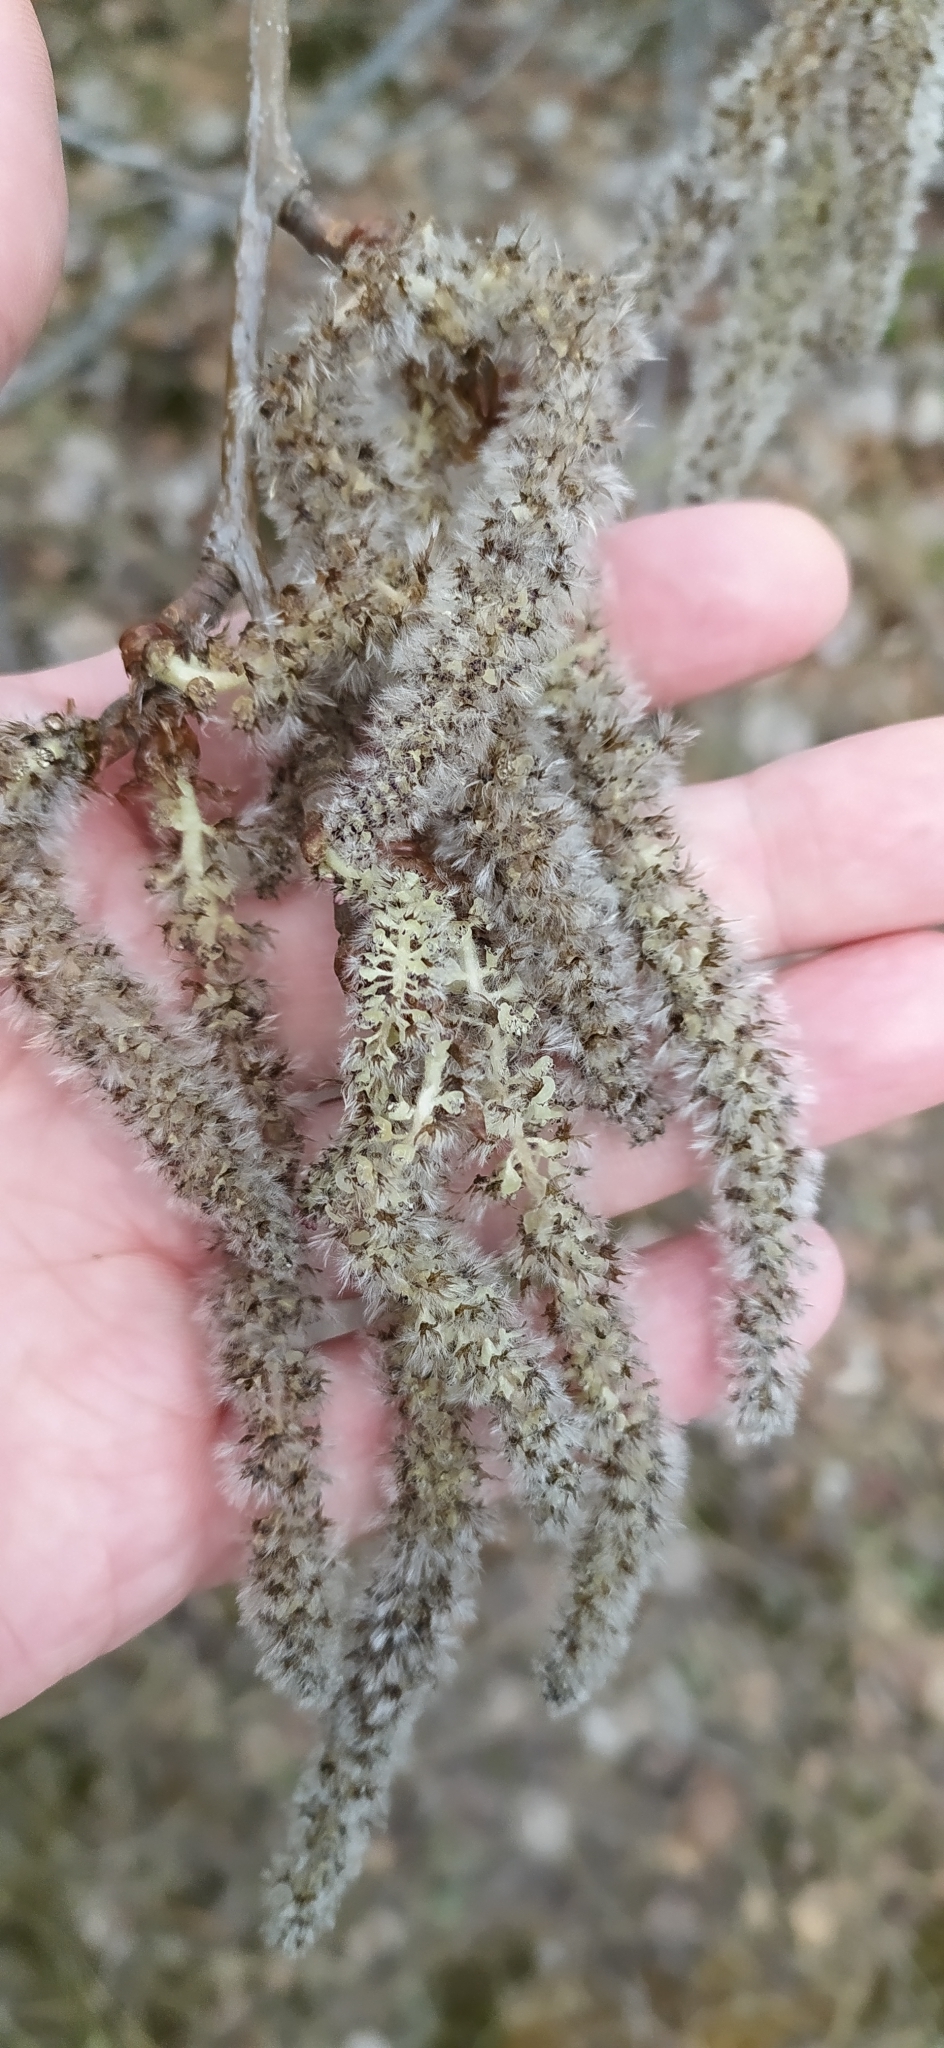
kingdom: Plantae
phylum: Tracheophyta
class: Magnoliopsida
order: Malpighiales
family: Salicaceae
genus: Populus
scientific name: Populus tremula
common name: European aspen
